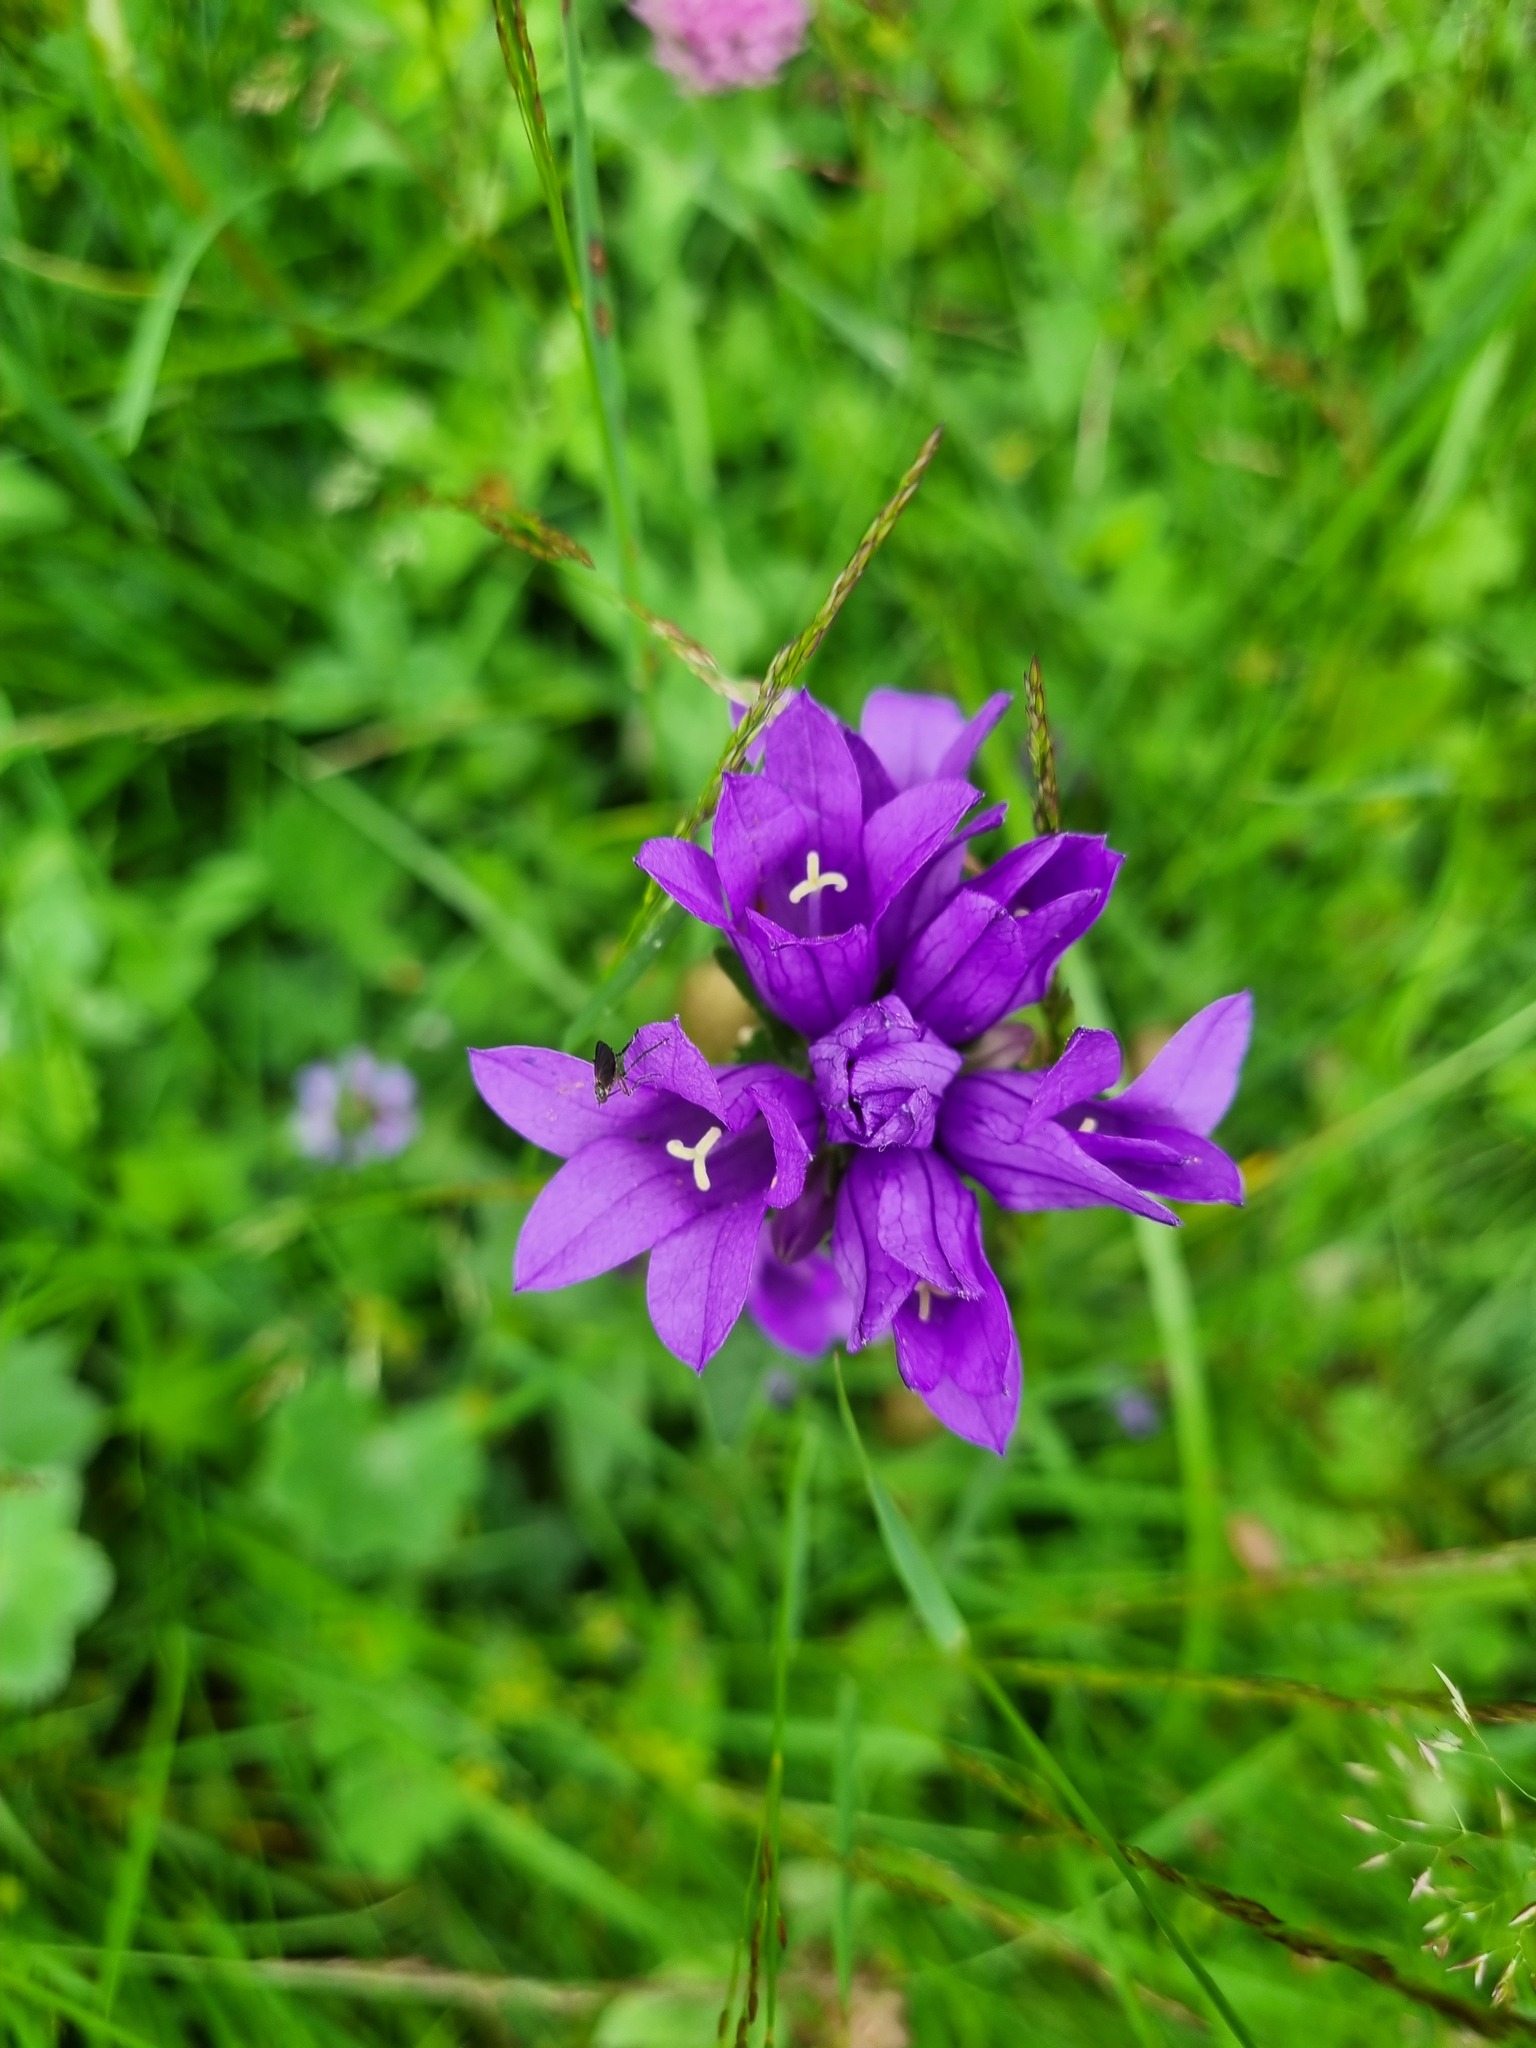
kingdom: Plantae
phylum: Tracheophyta
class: Magnoliopsida
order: Asterales
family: Campanulaceae
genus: Campanula
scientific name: Campanula glomerata
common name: Clustered bellflower
